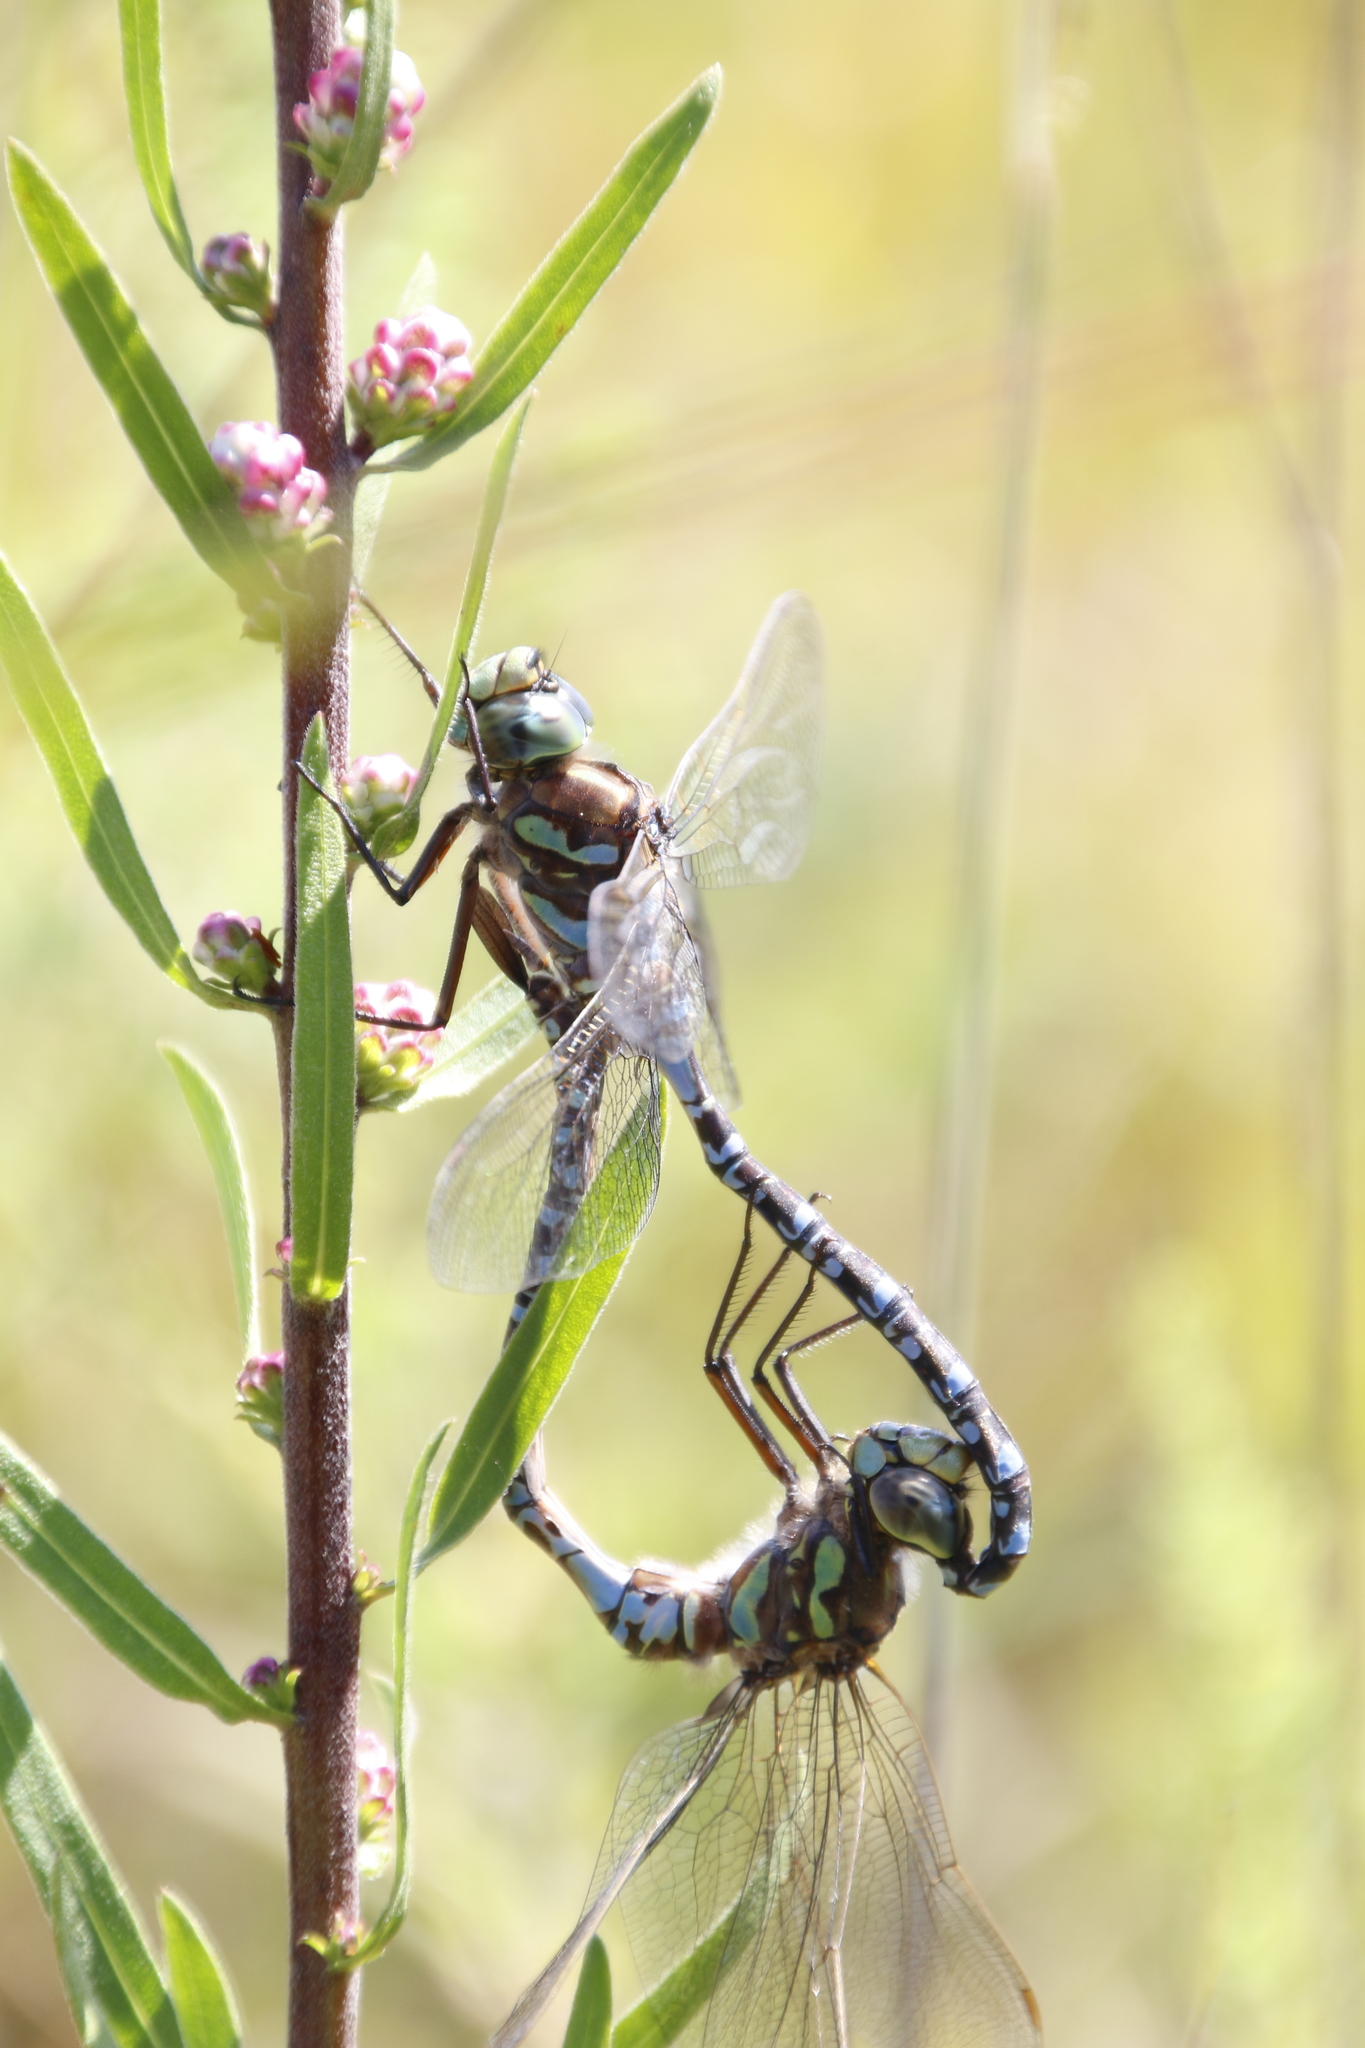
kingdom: Animalia
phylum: Arthropoda
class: Insecta
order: Odonata
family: Aeshnidae
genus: Aeshna
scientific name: Aeshna eremita
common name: Lake darner
